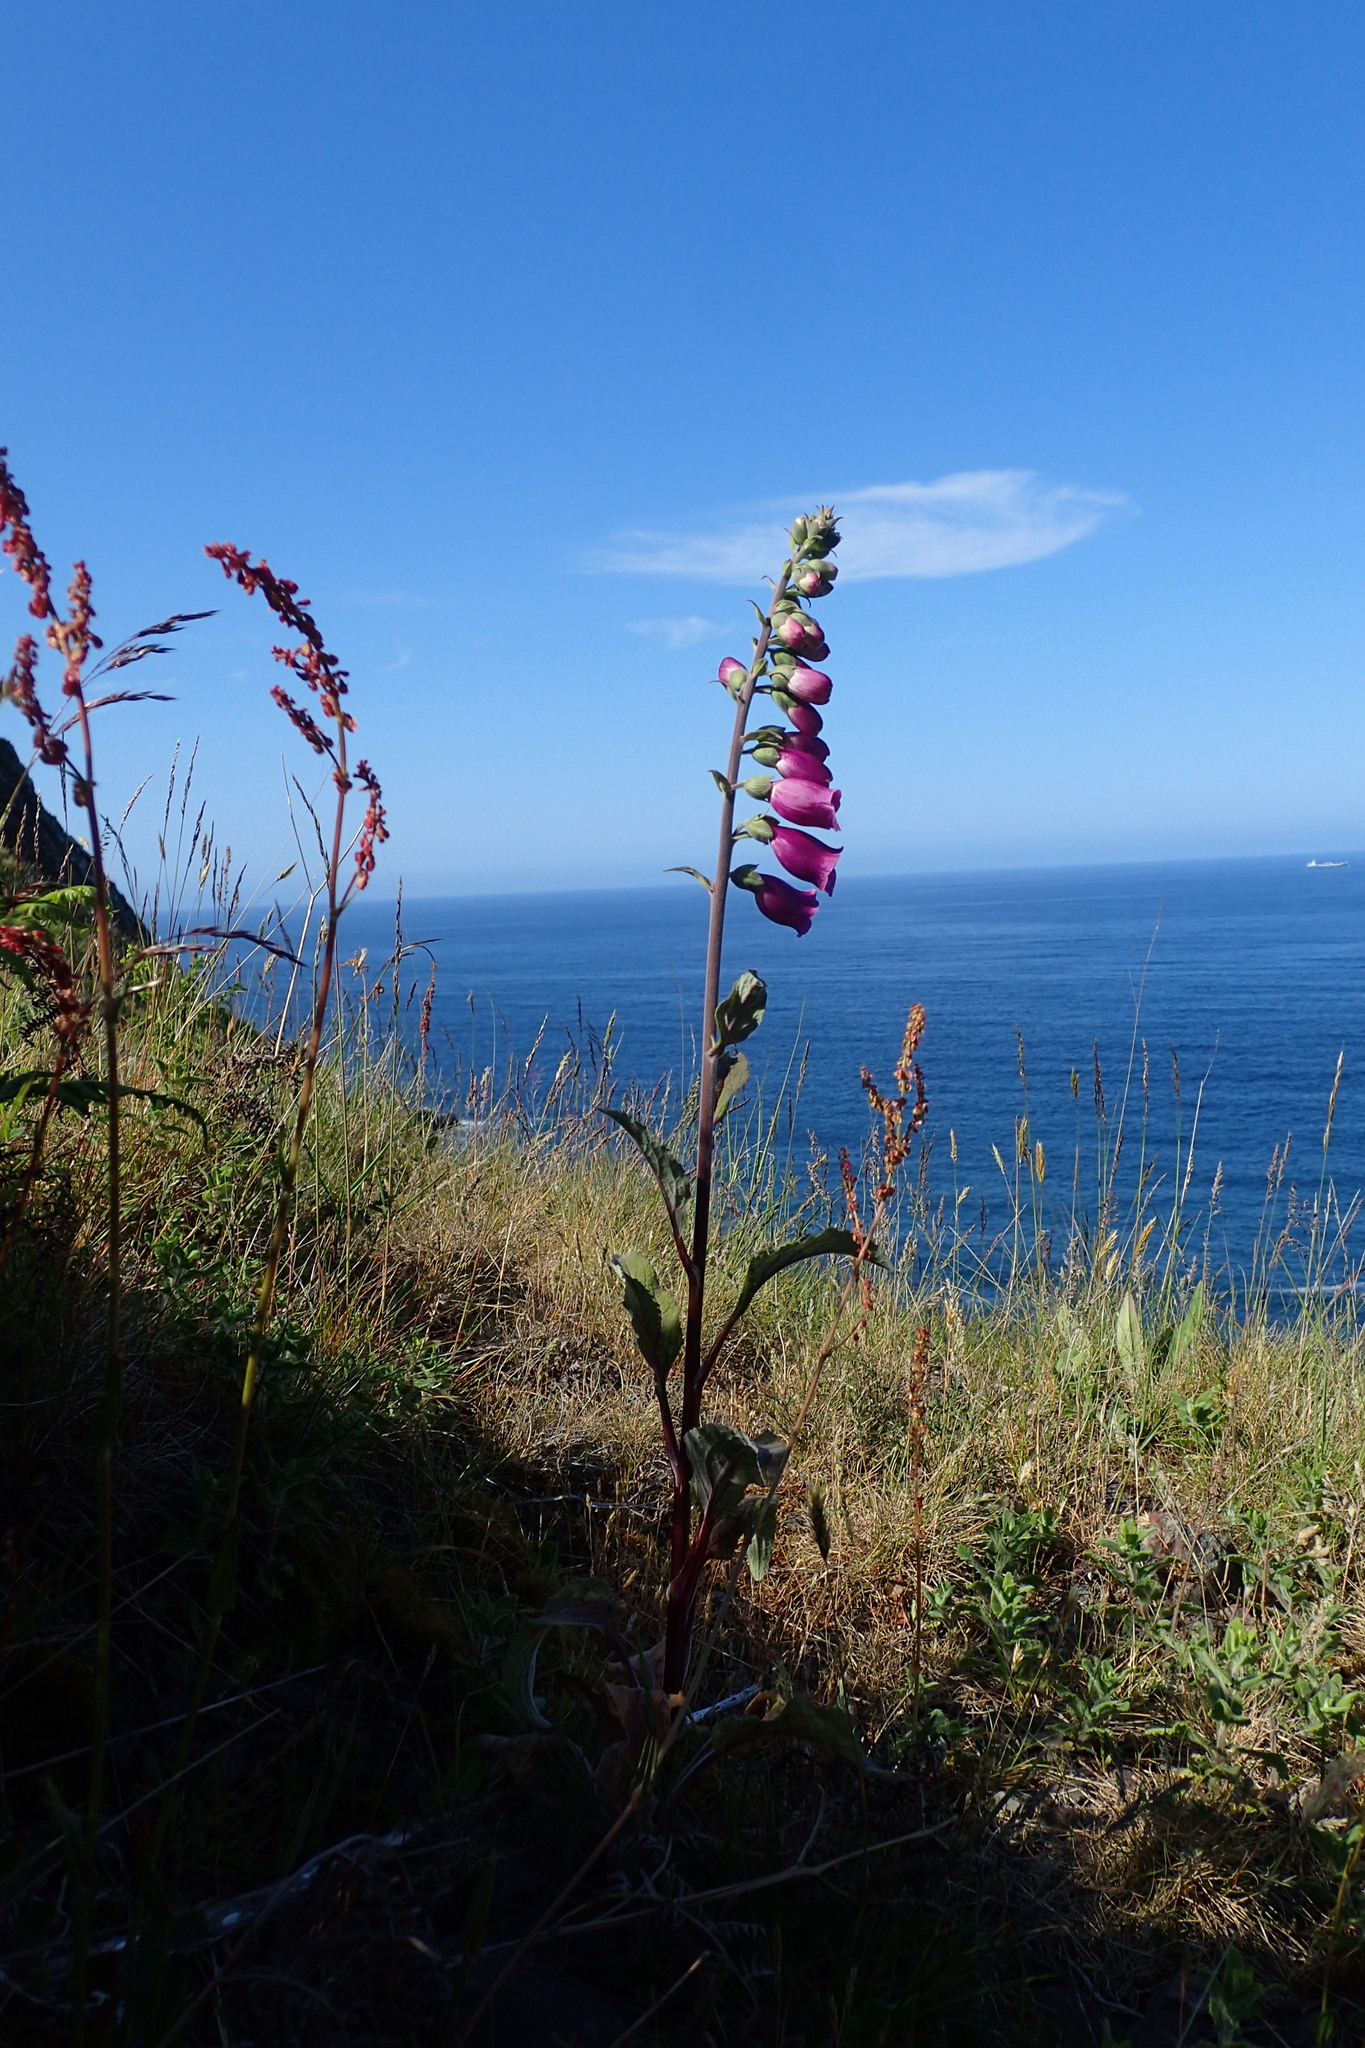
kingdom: Plantae
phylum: Tracheophyta
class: Magnoliopsida
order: Lamiales
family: Plantaginaceae
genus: Digitalis
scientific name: Digitalis purpurea
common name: Foxglove
